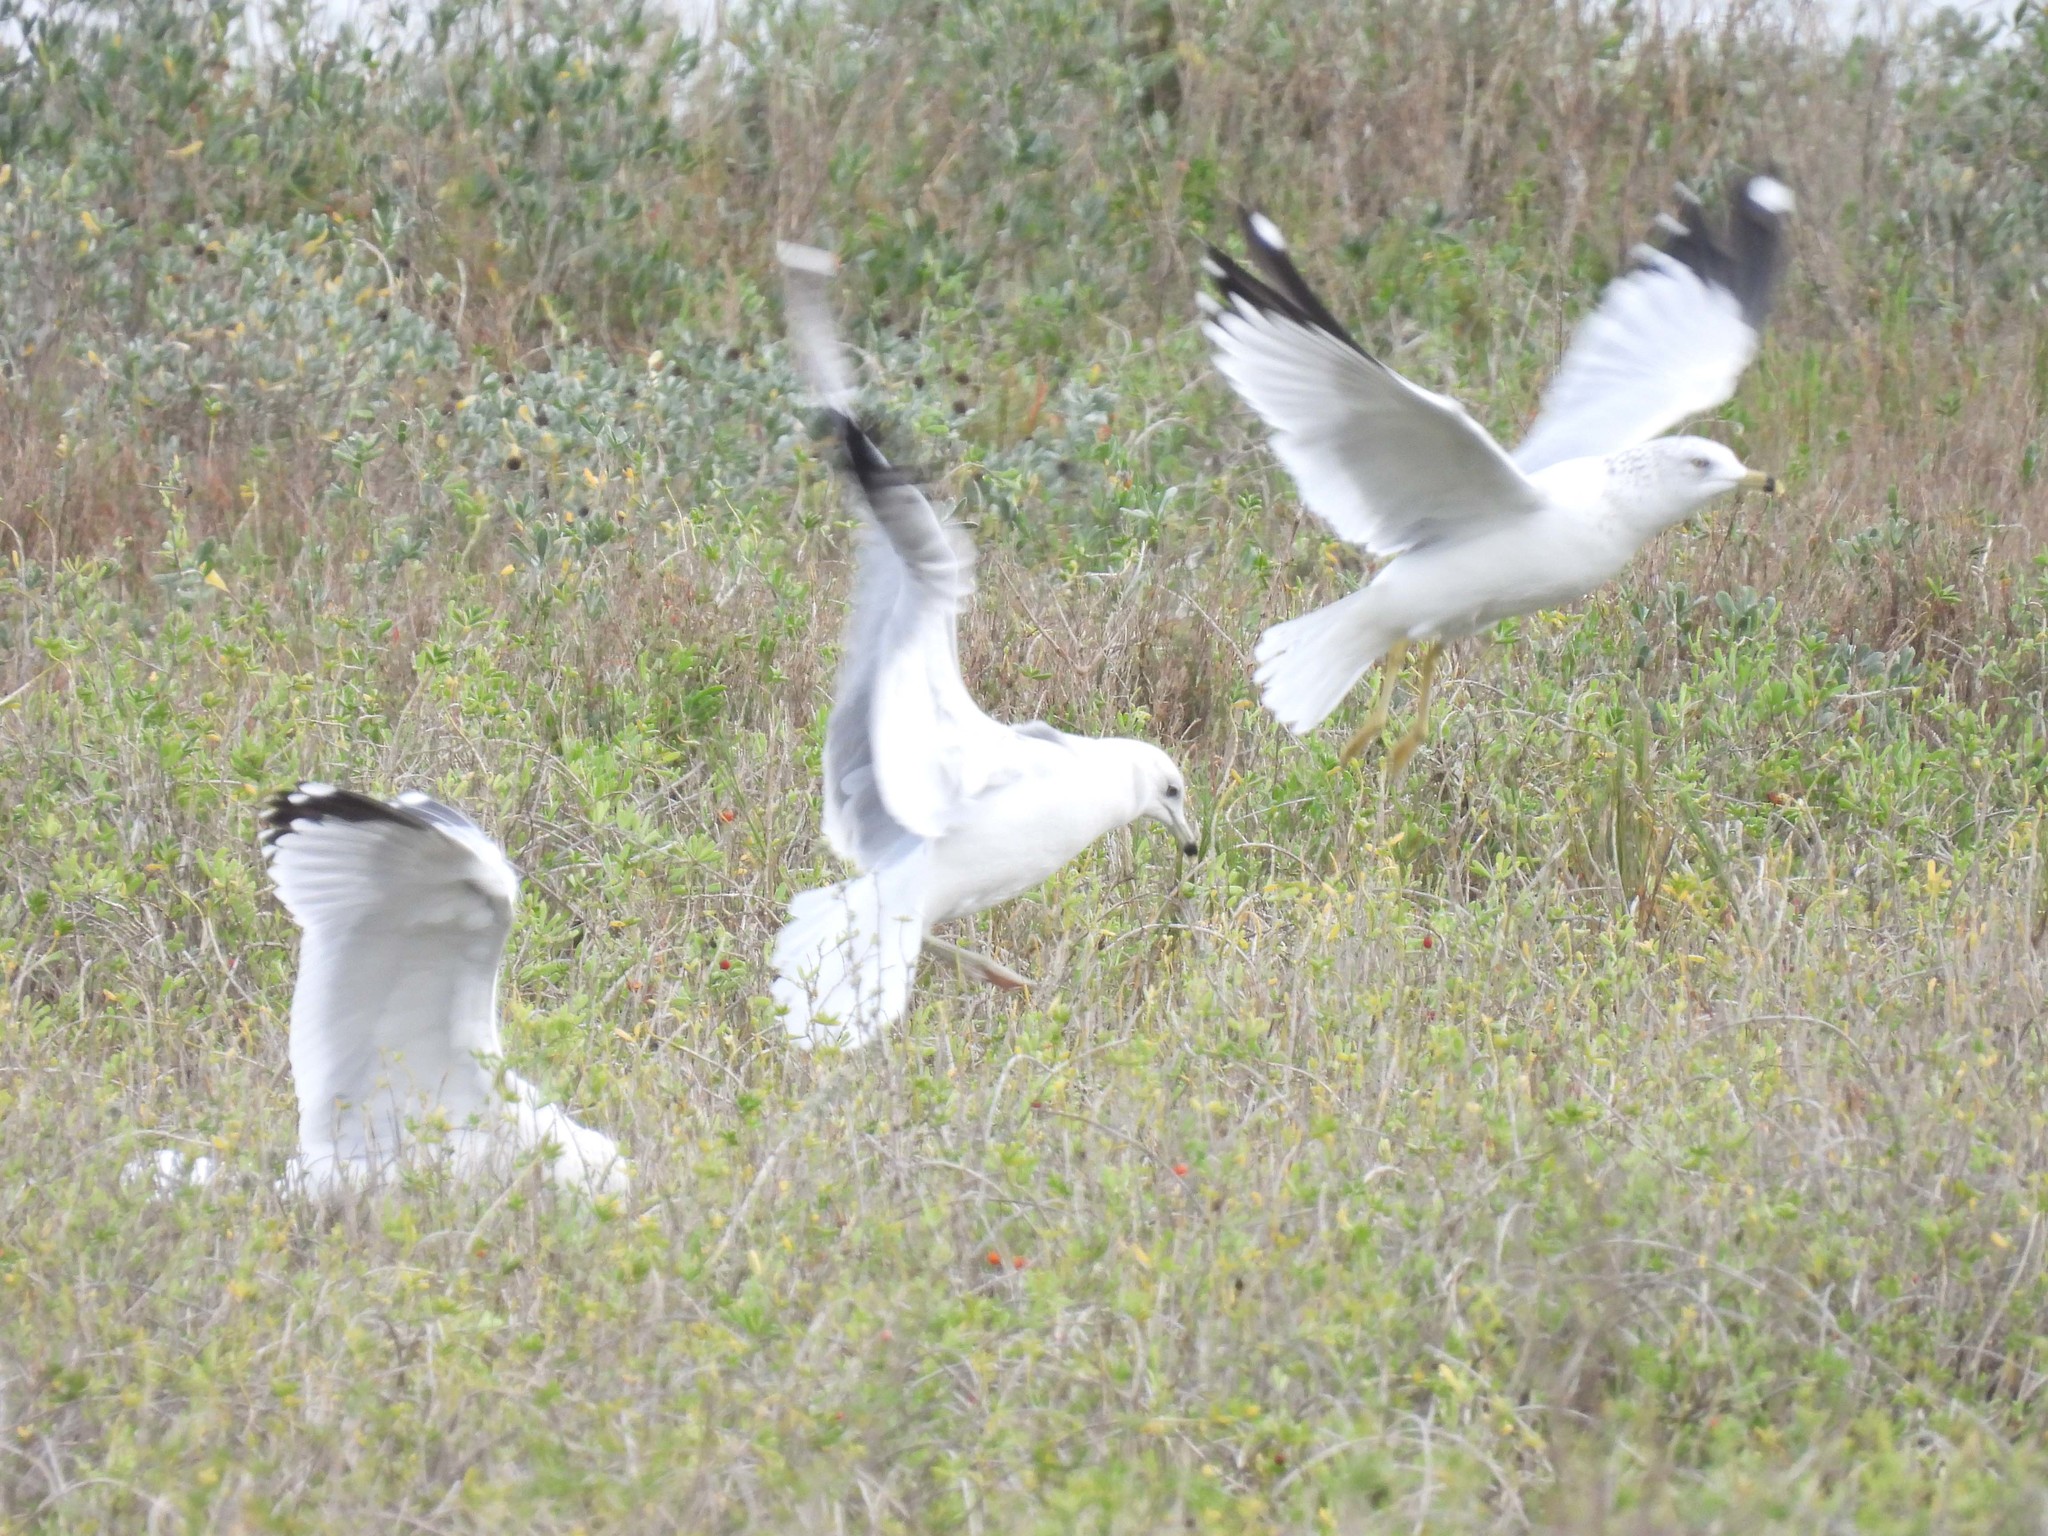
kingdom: Animalia
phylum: Chordata
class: Aves
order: Charadriiformes
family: Laridae
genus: Larus
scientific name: Larus delawarensis
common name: Ring-billed gull
